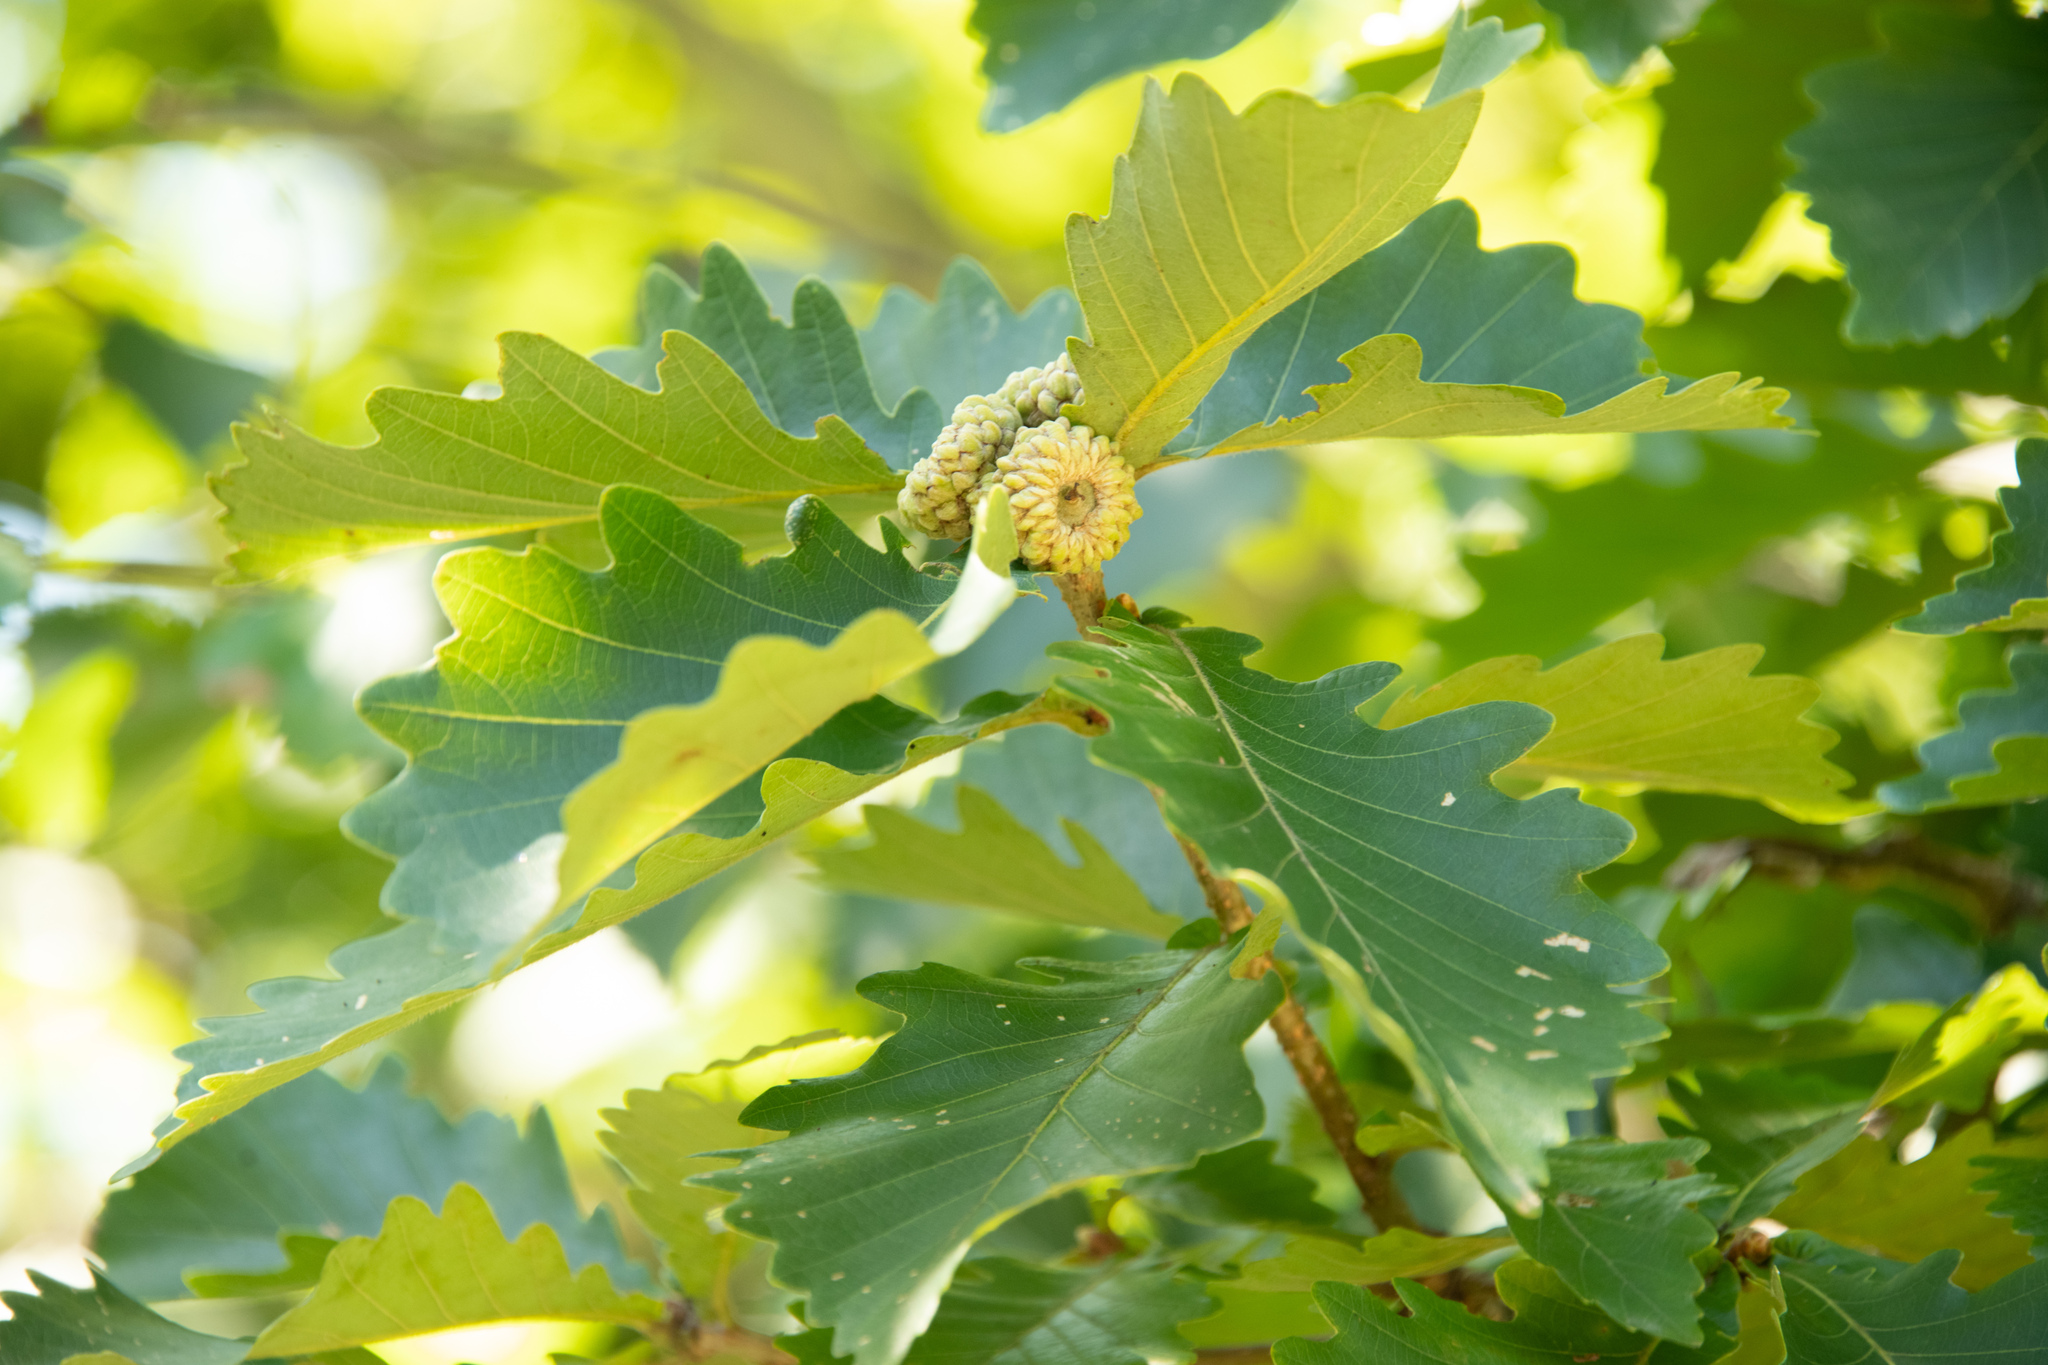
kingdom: Plantae
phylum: Tracheophyta
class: Magnoliopsida
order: Fagales
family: Fagaceae
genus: Quercus
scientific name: Quercus mongolica
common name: Mongolian oak
